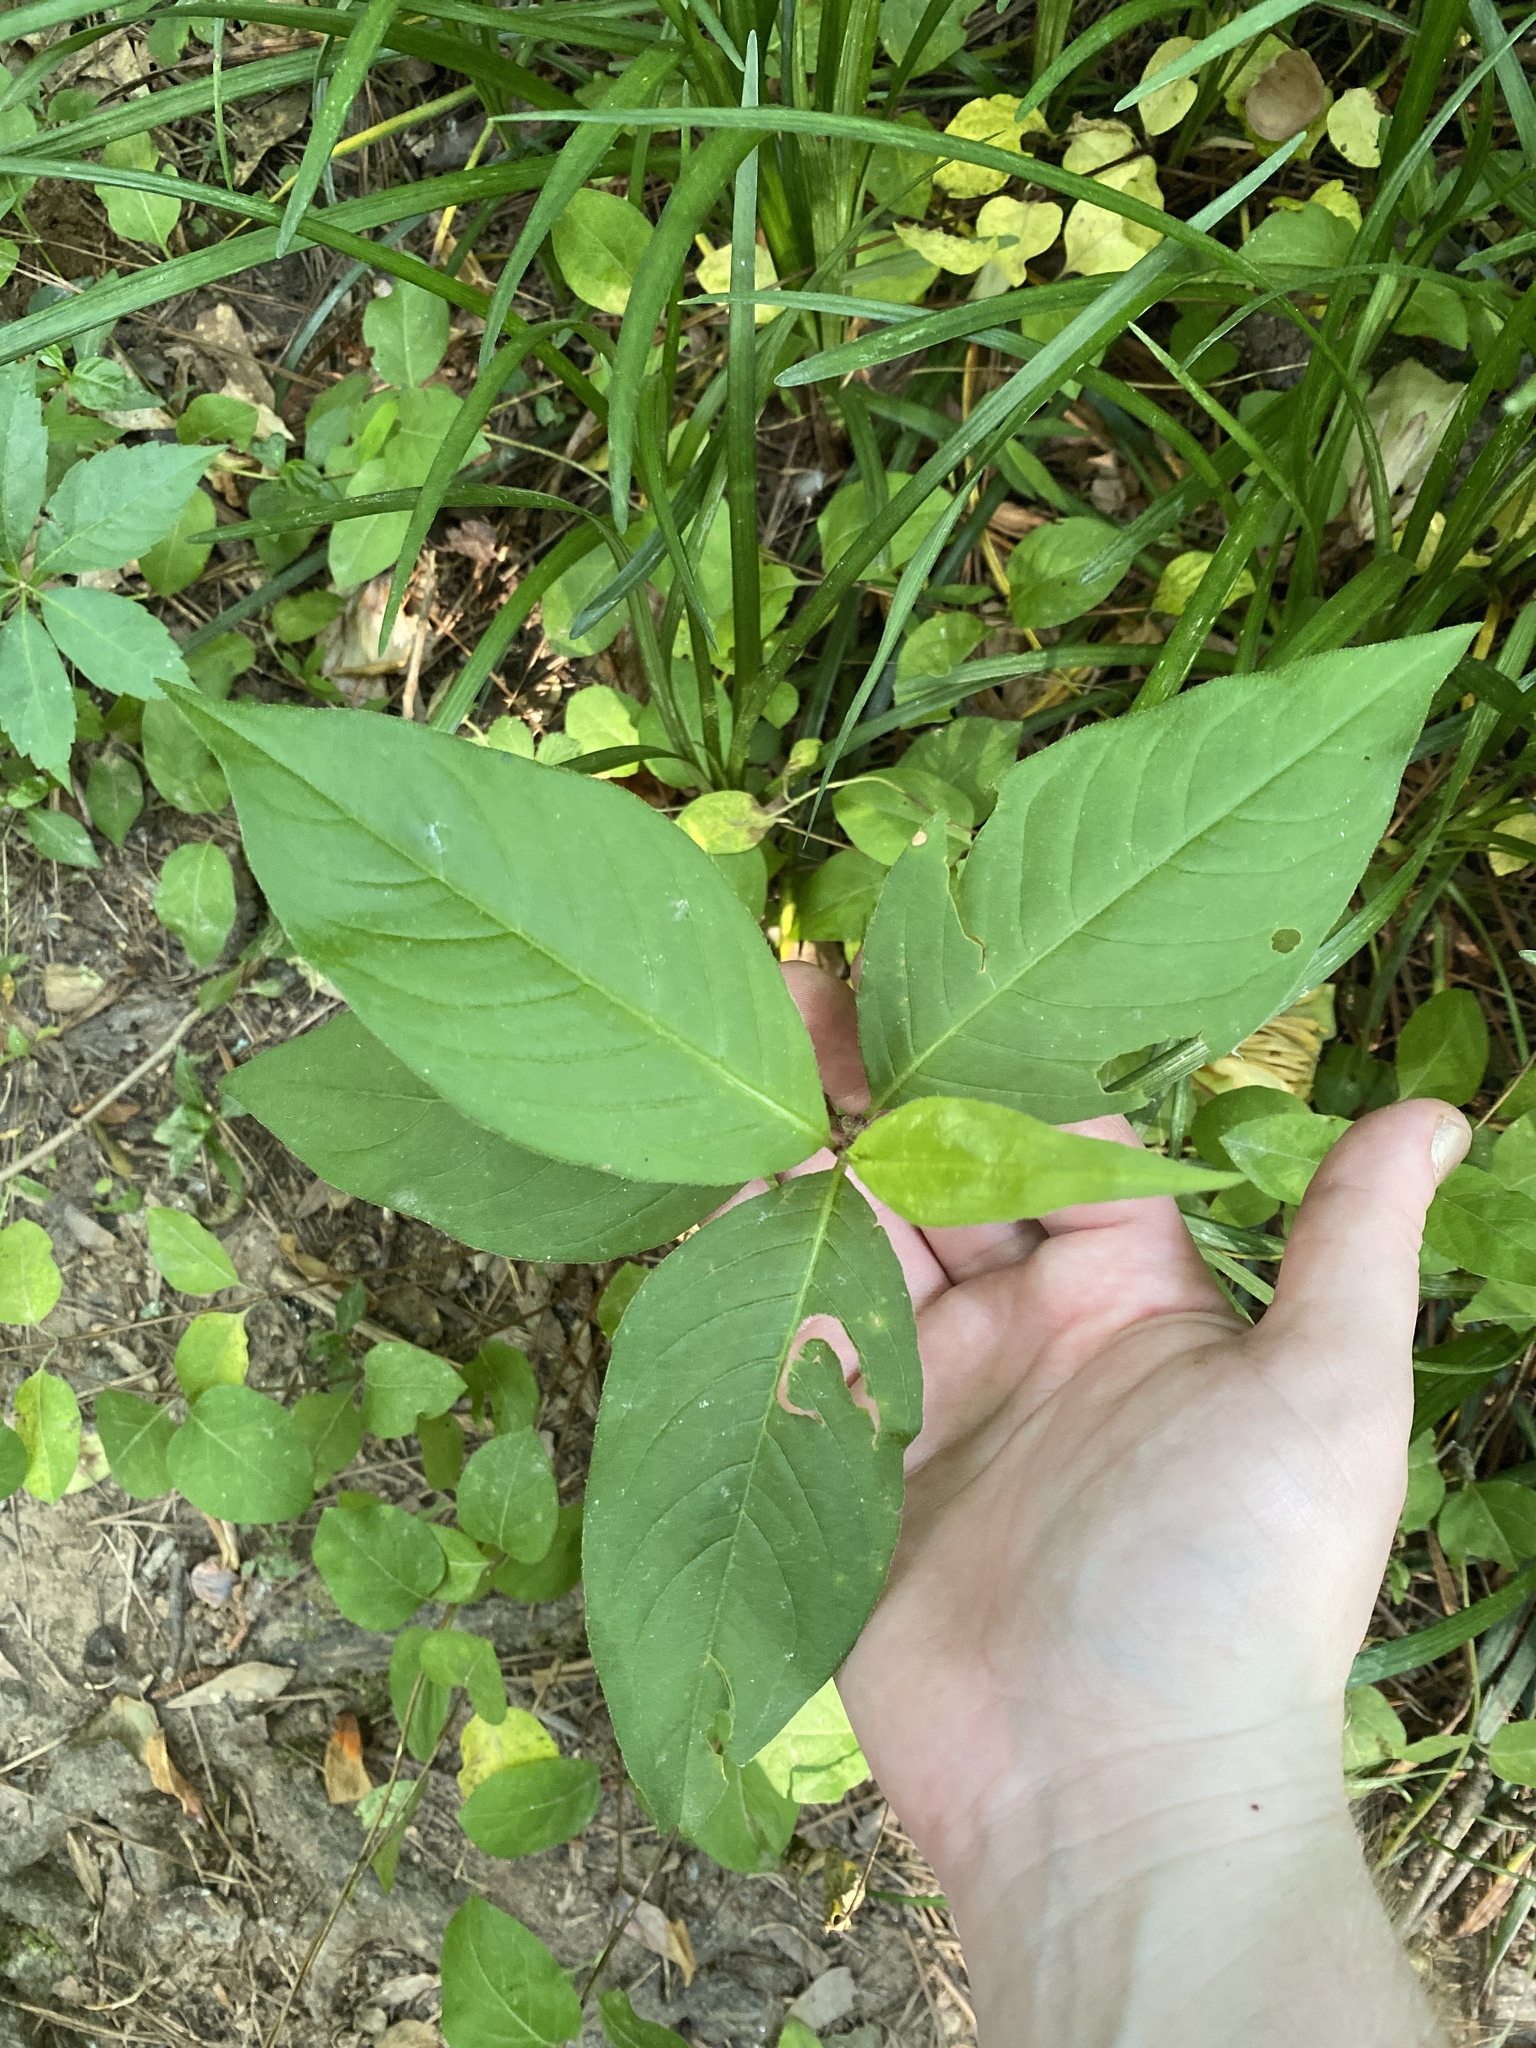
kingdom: Plantae
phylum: Tracheophyta
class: Magnoliopsida
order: Caryophyllales
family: Polygonaceae
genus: Persicaria
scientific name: Persicaria virginiana
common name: Jumpseed
